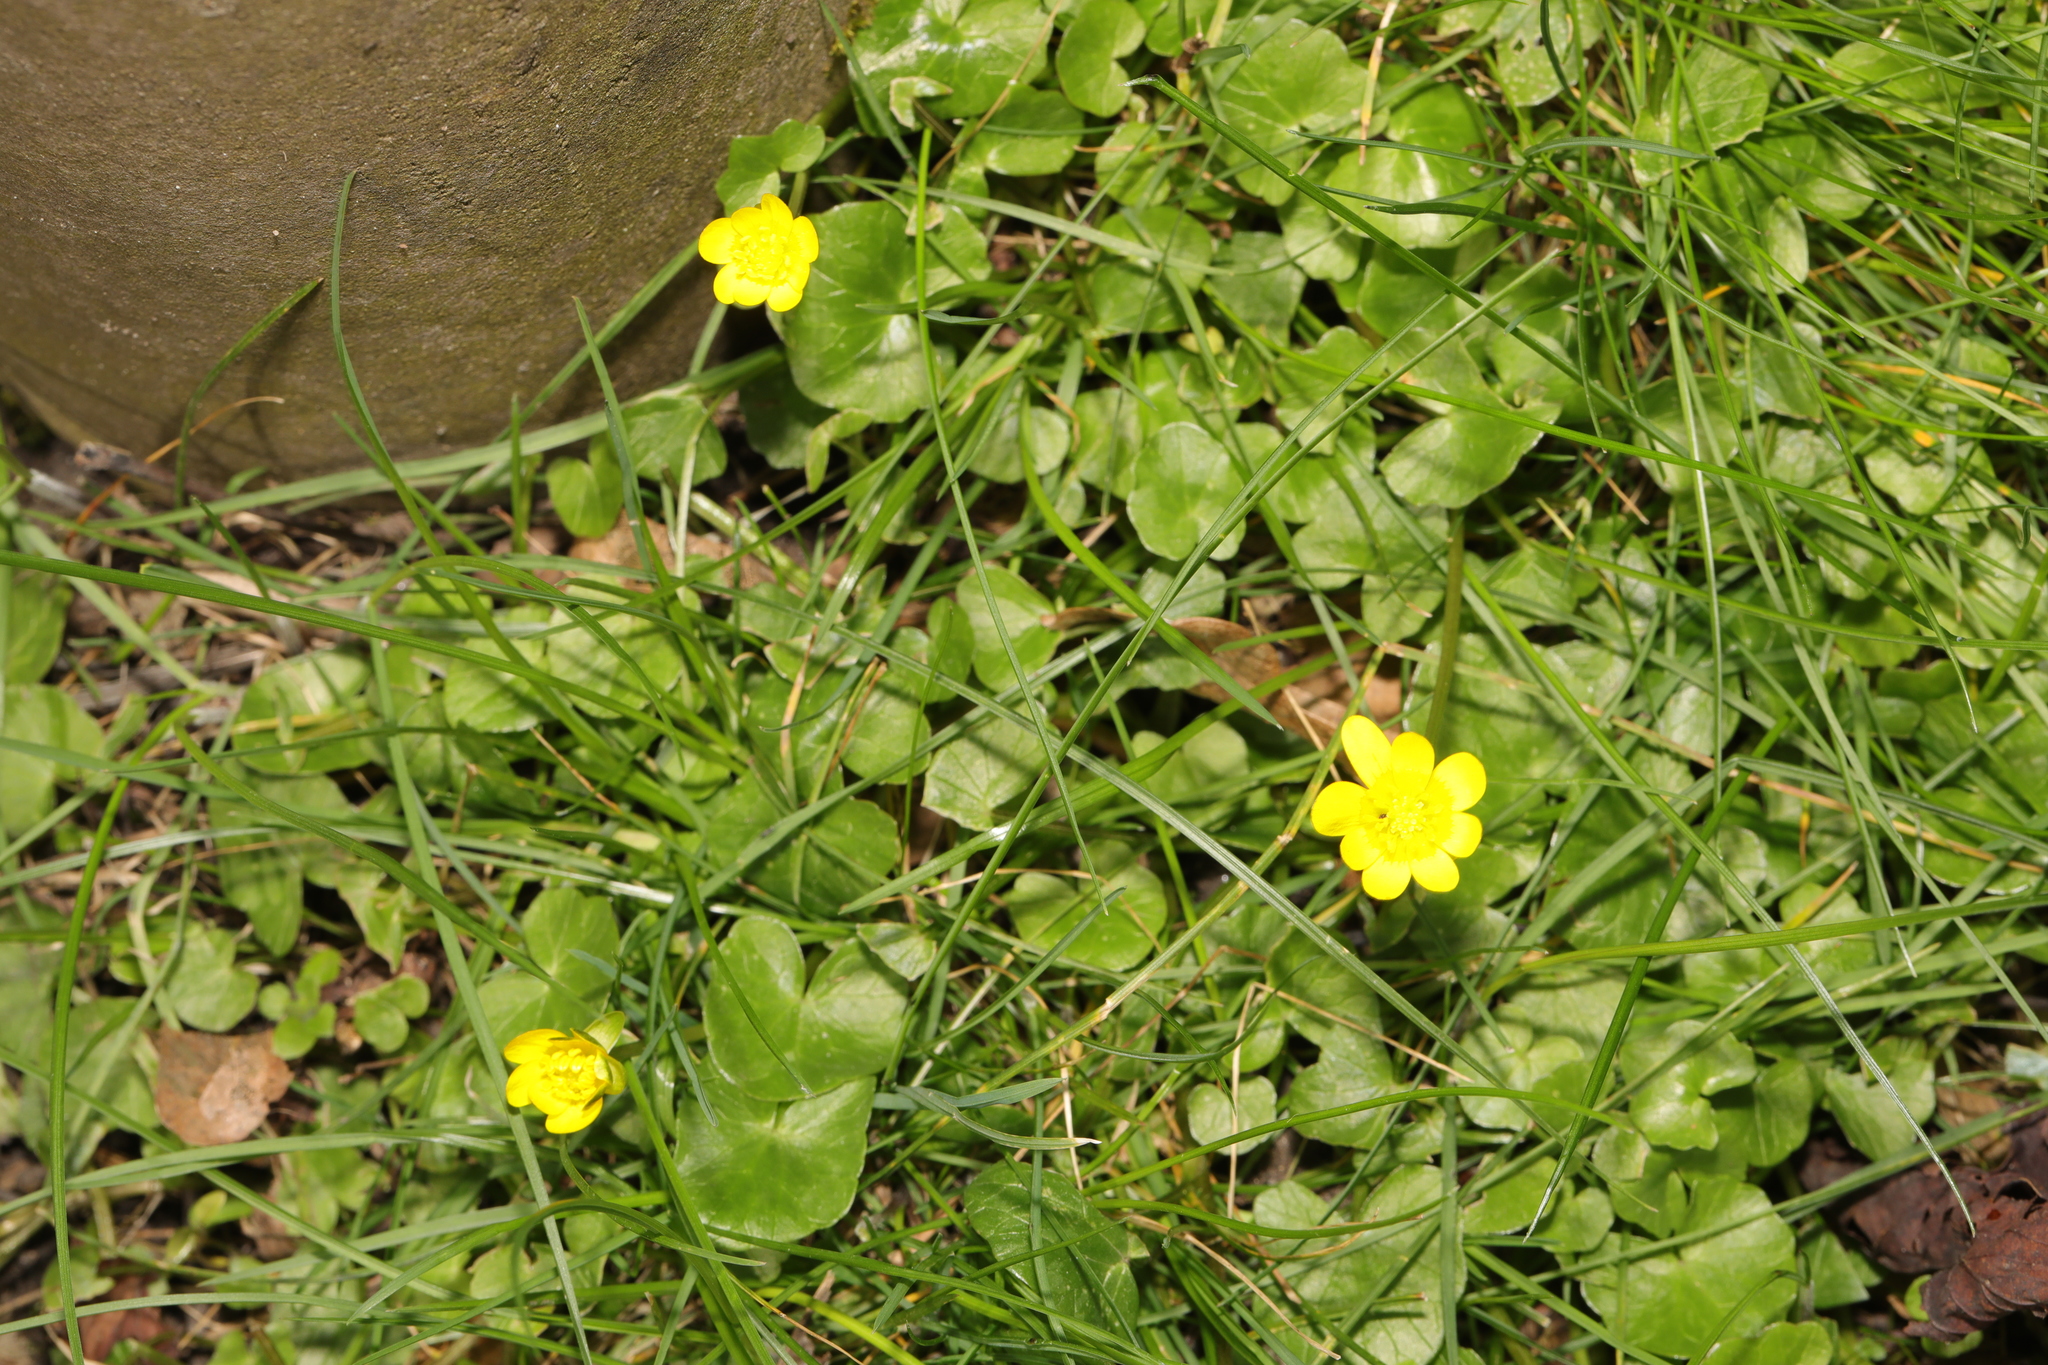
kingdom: Plantae
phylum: Tracheophyta
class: Magnoliopsida
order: Ranunculales
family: Ranunculaceae
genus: Ficaria
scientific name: Ficaria verna
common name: Lesser celandine
